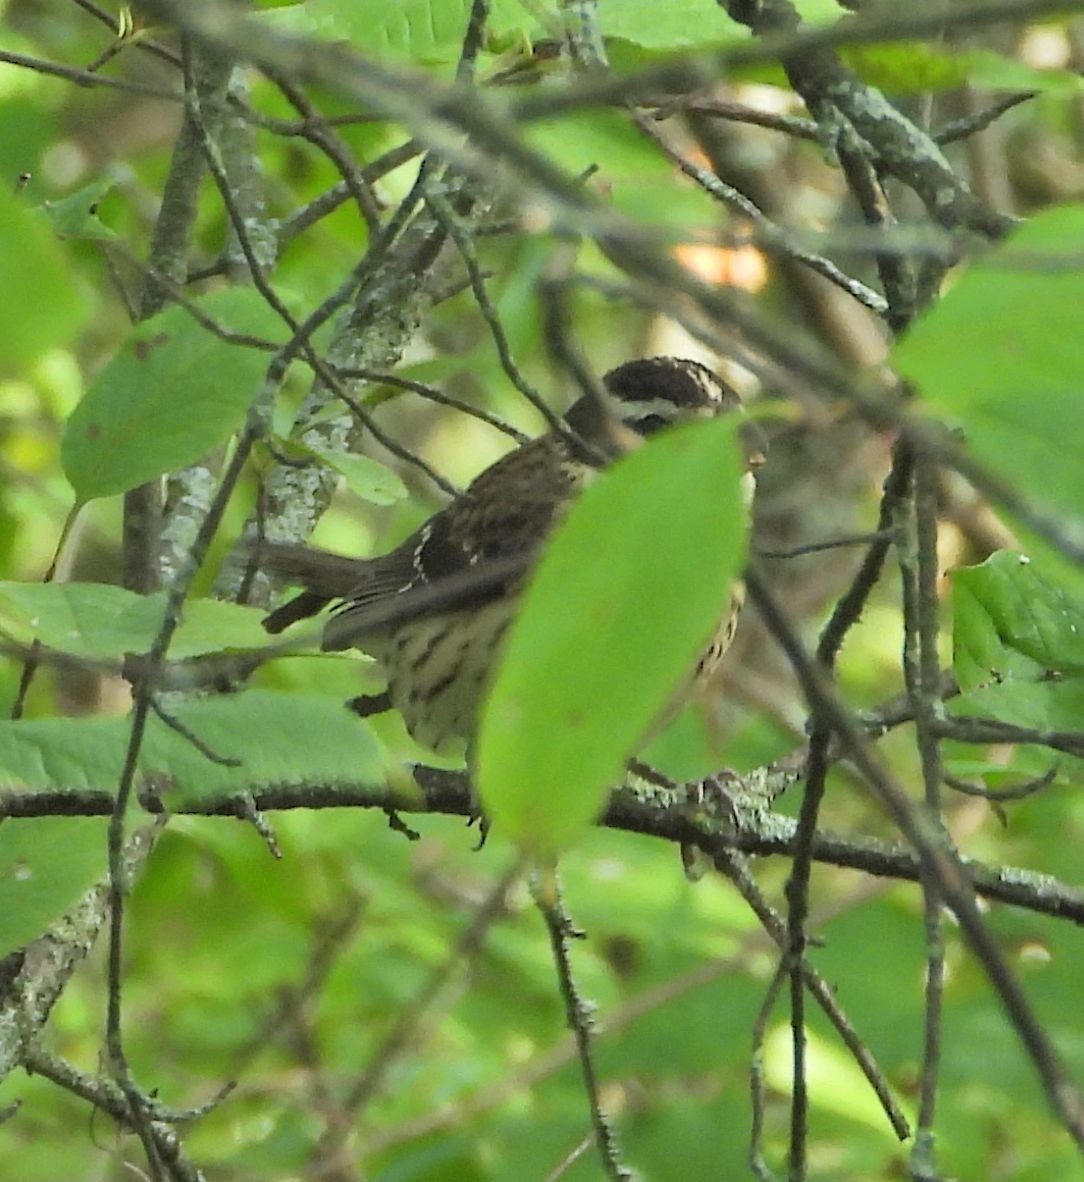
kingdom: Animalia
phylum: Chordata
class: Aves
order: Passeriformes
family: Cardinalidae
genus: Pheucticus
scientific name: Pheucticus ludovicianus
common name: Rose-breasted grosbeak
